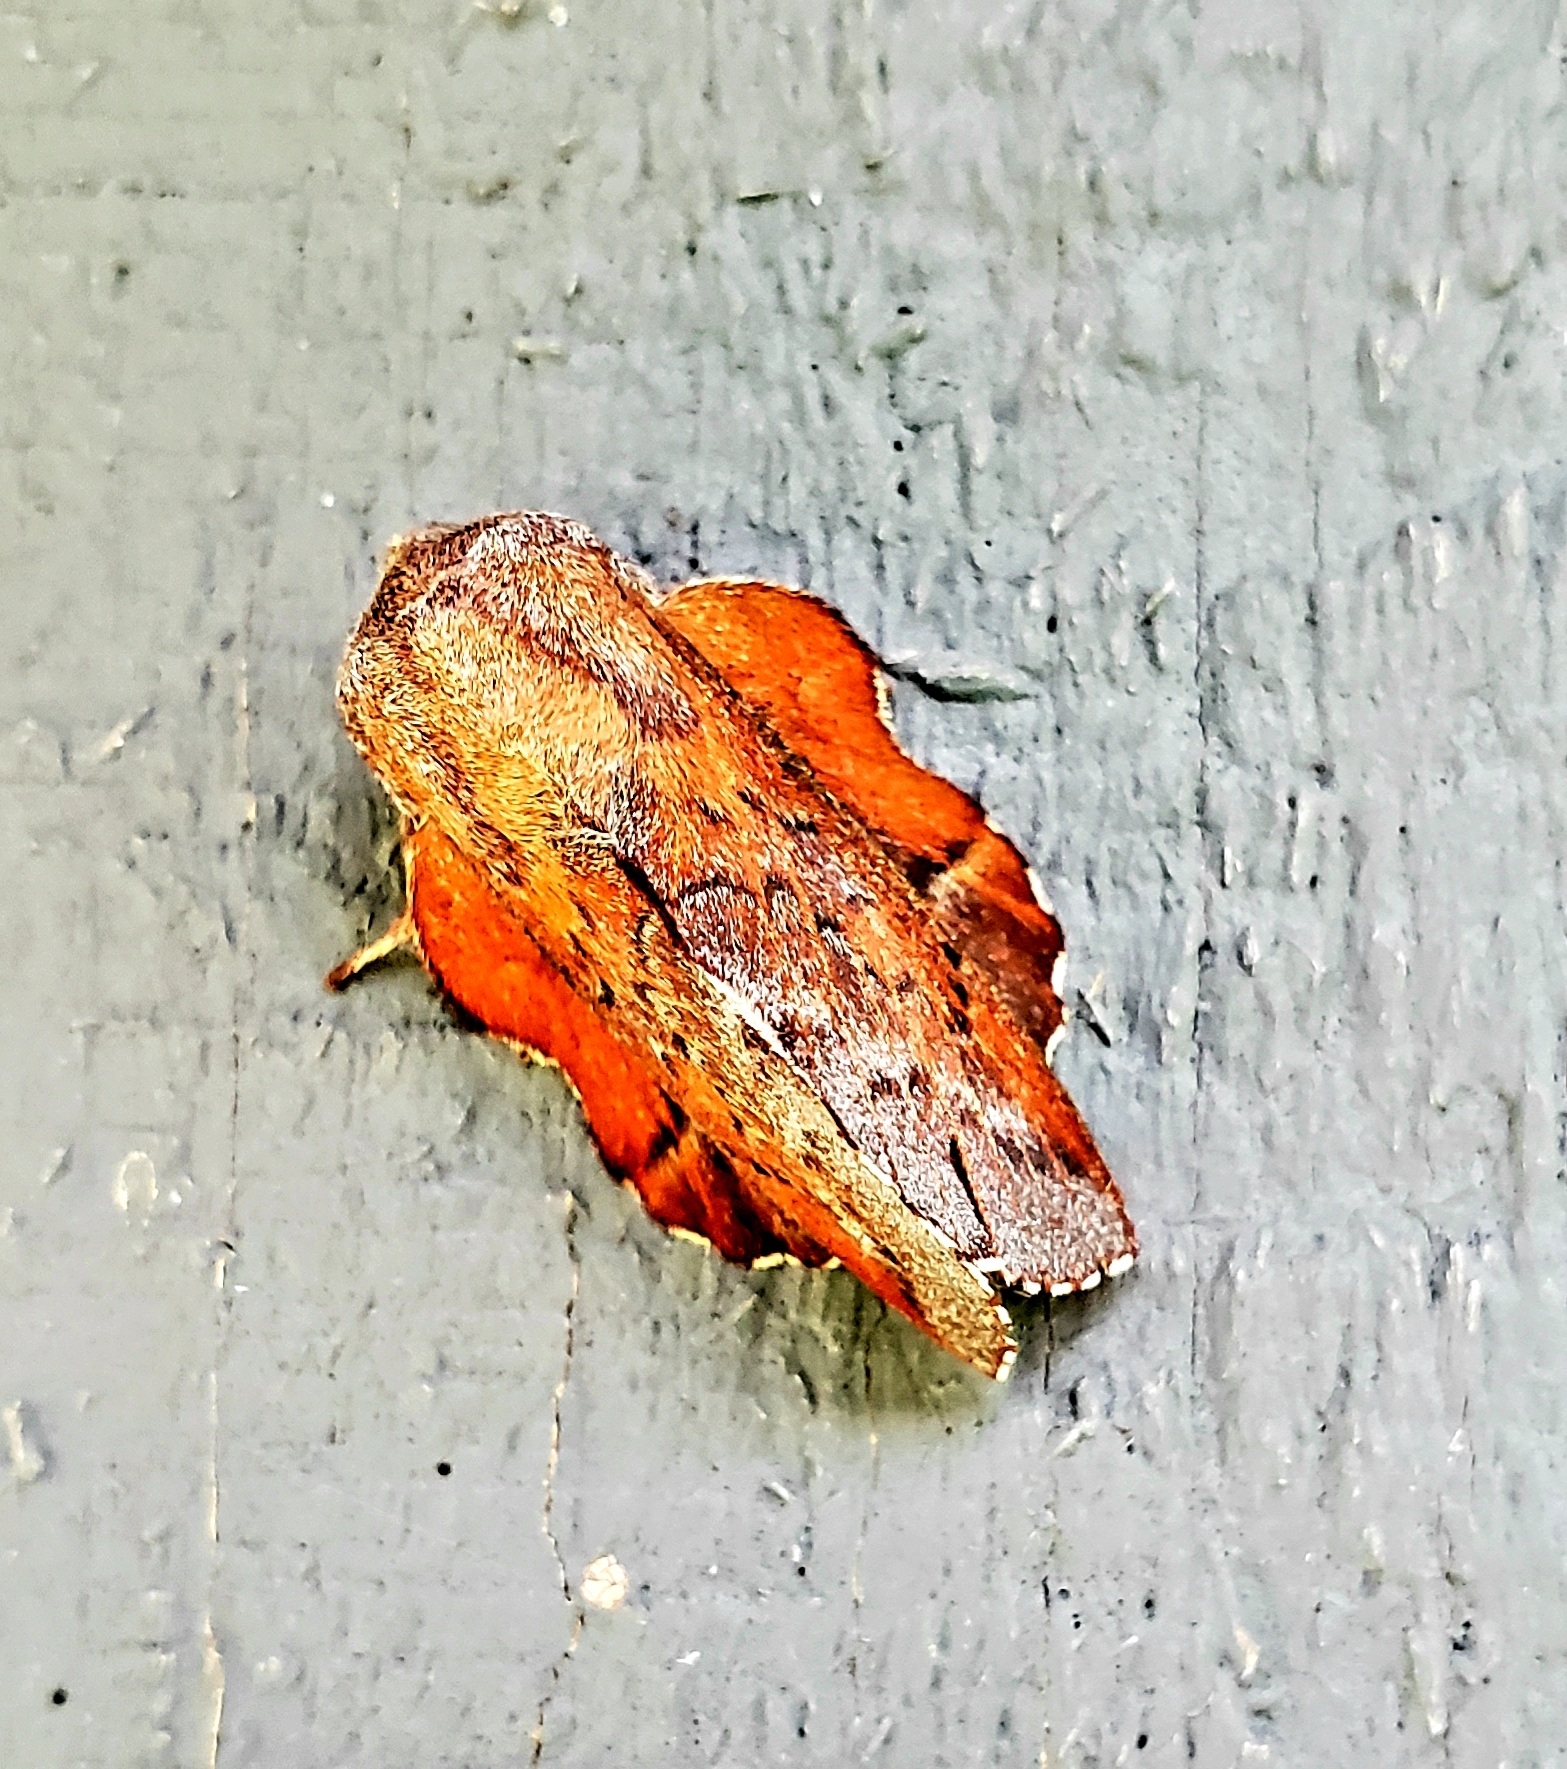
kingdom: Animalia
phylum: Arthropoda
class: Insecta
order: Lepidoptera
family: Lasiocampidae
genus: Phyllodesma
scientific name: Phyllodesma americana
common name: American lappet moth
